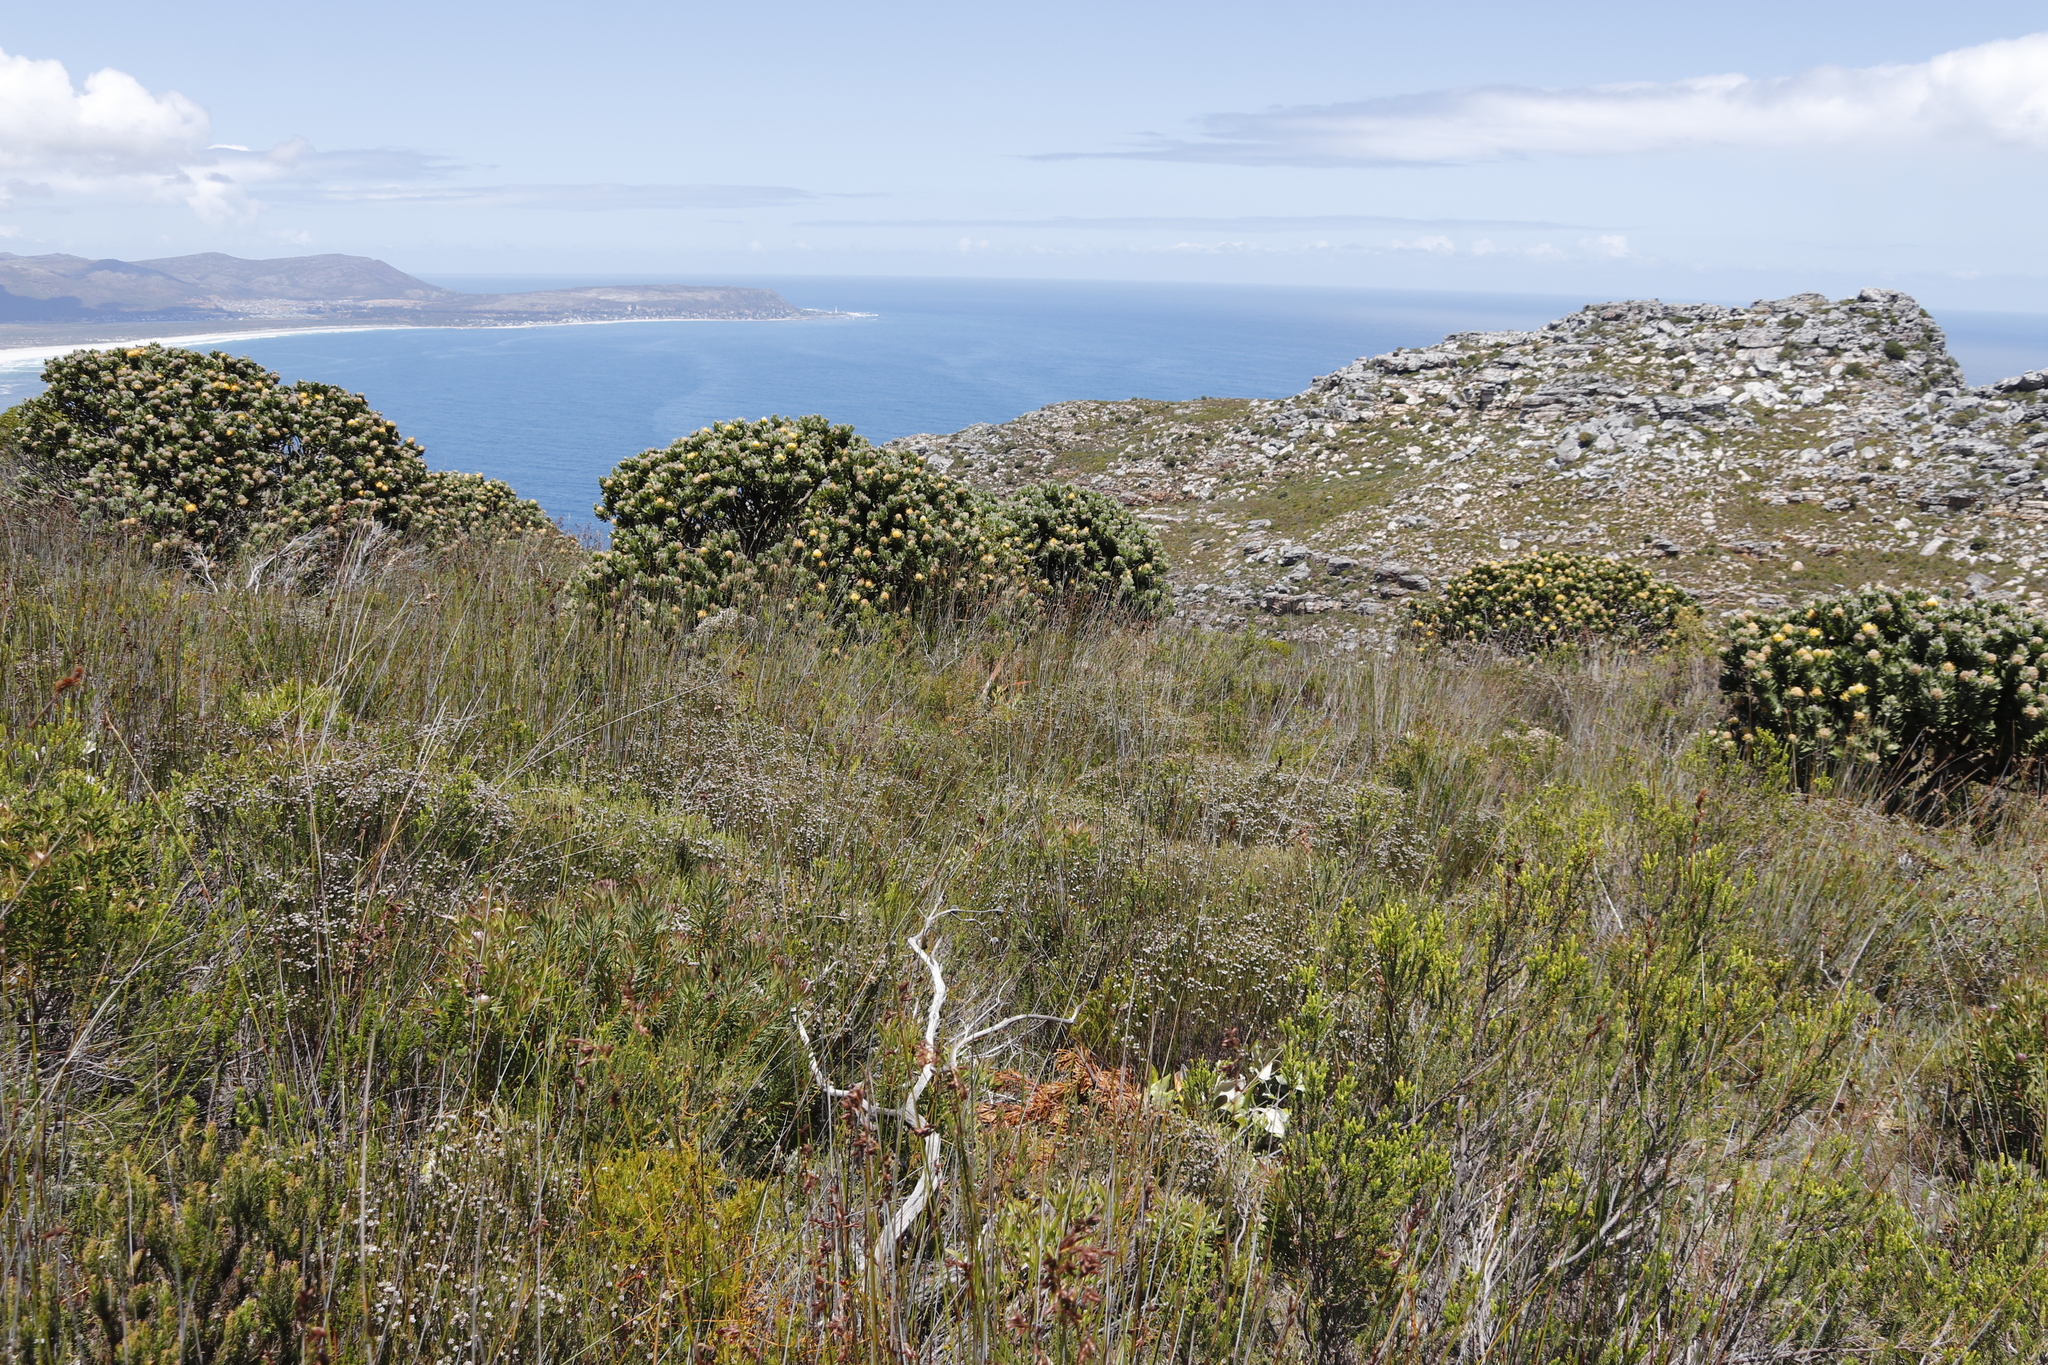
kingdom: Plantae
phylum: Tracheophyta
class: Magnoliopsida
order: Proteales
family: Proteaceae
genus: Leucospermum
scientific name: Leucospermum conocarpodendron
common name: Tree pincushion
